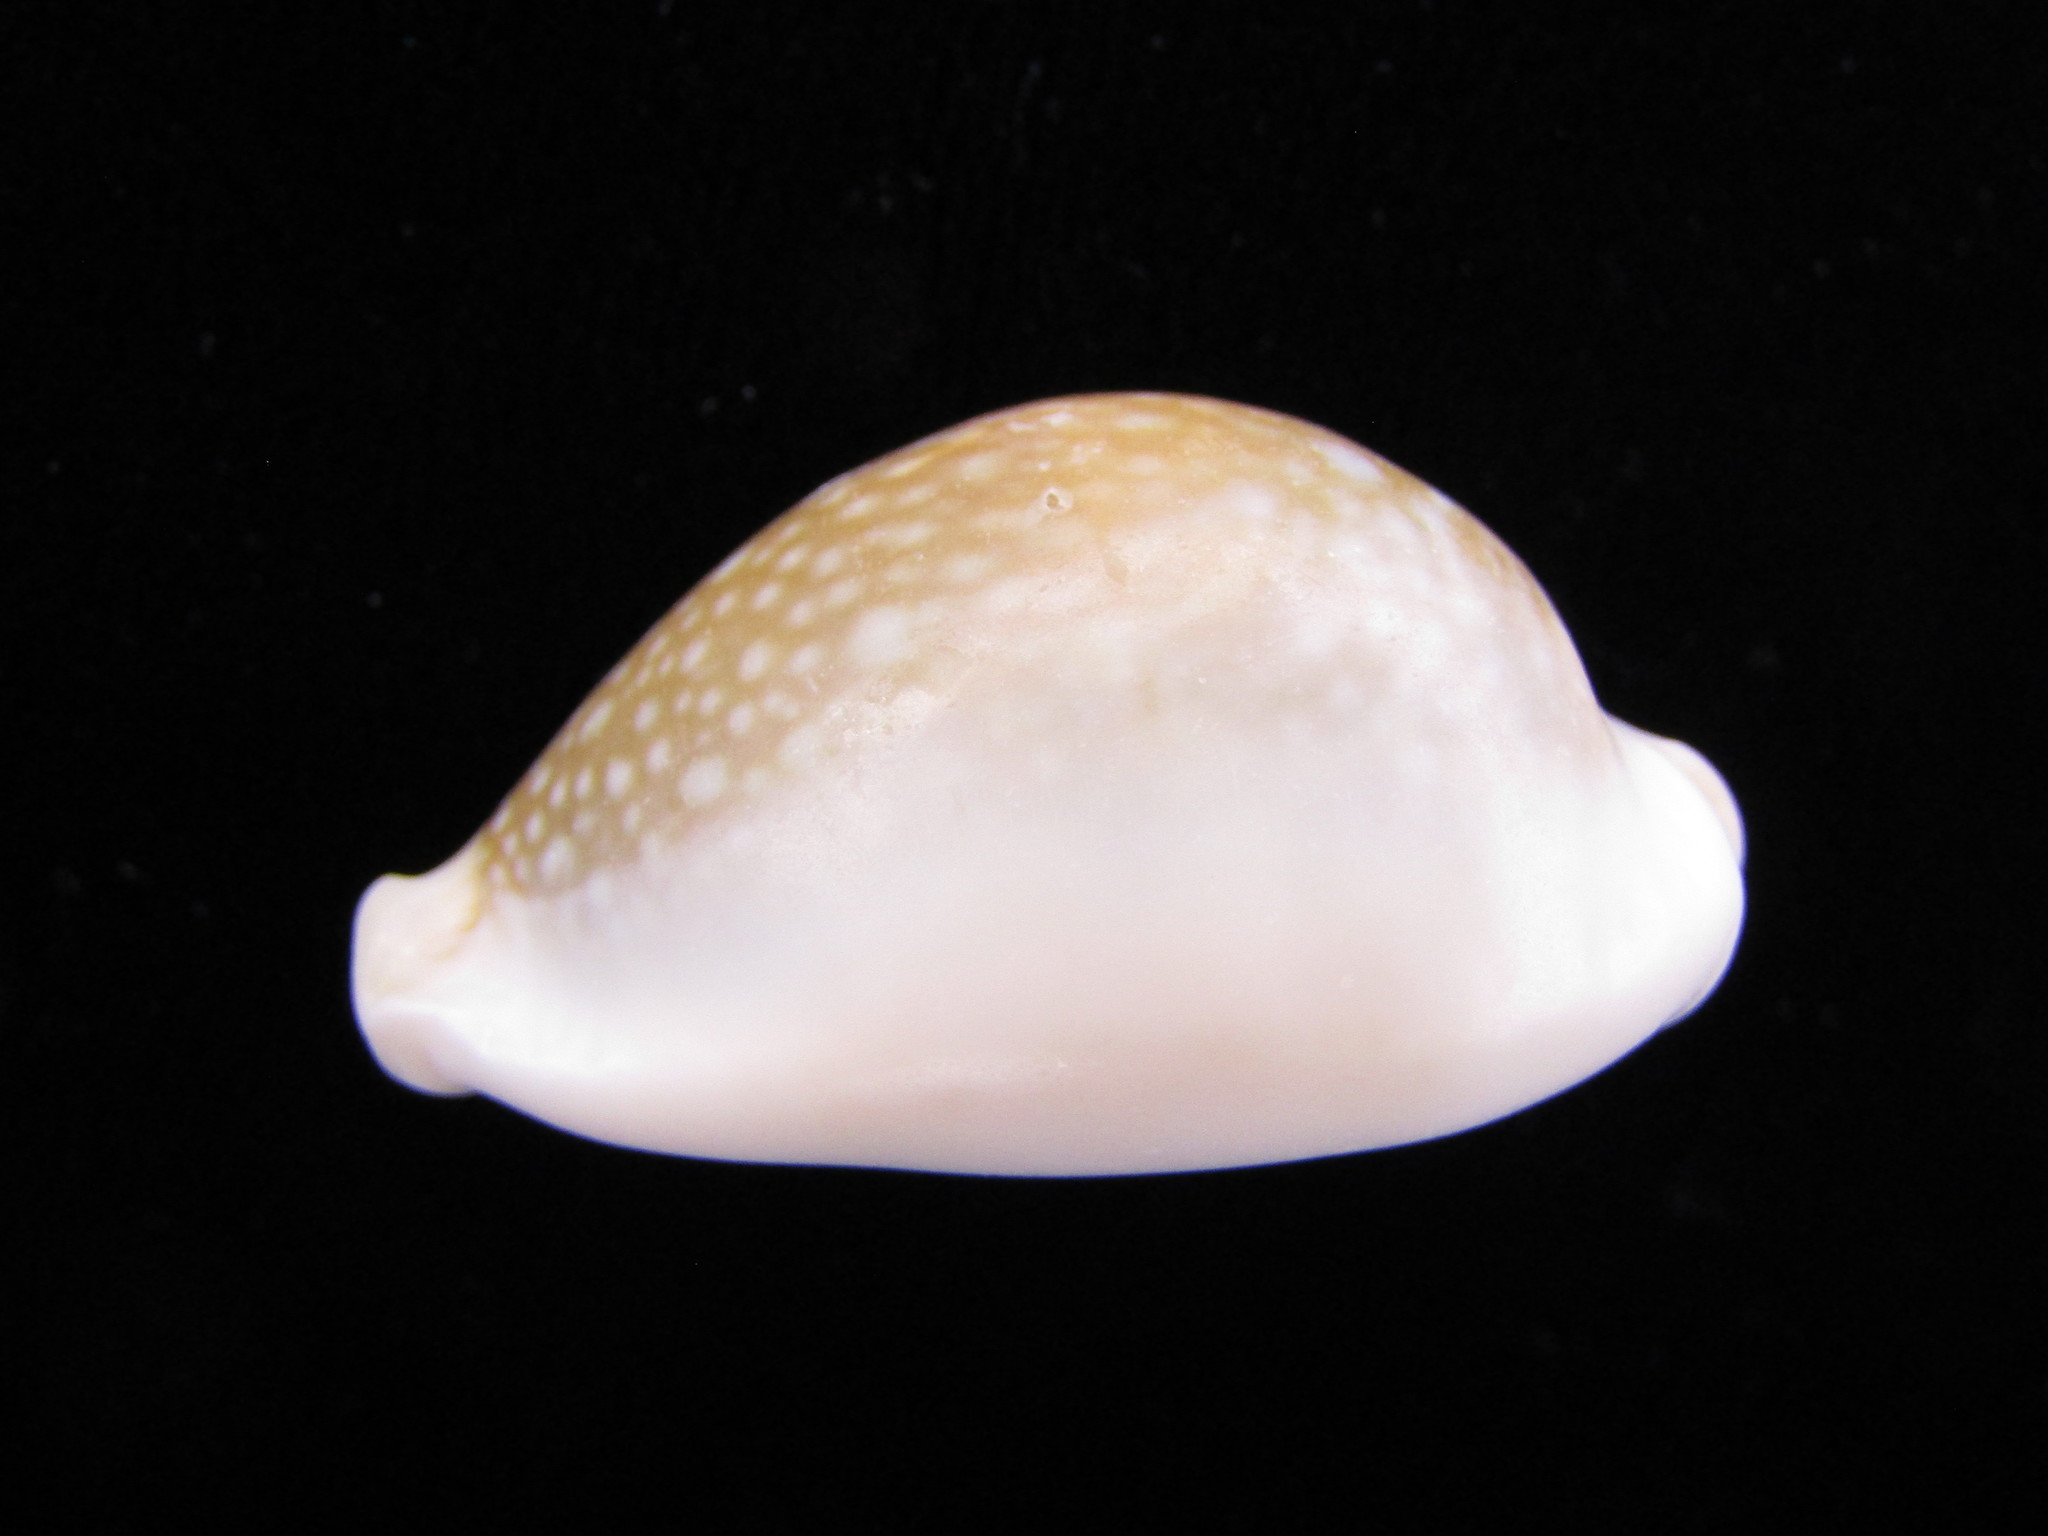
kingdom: Animalia
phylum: Mollusca
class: Gastropoda
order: Littorinimorpha
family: Cypraeidae
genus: Naria
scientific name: Naria miliaris
